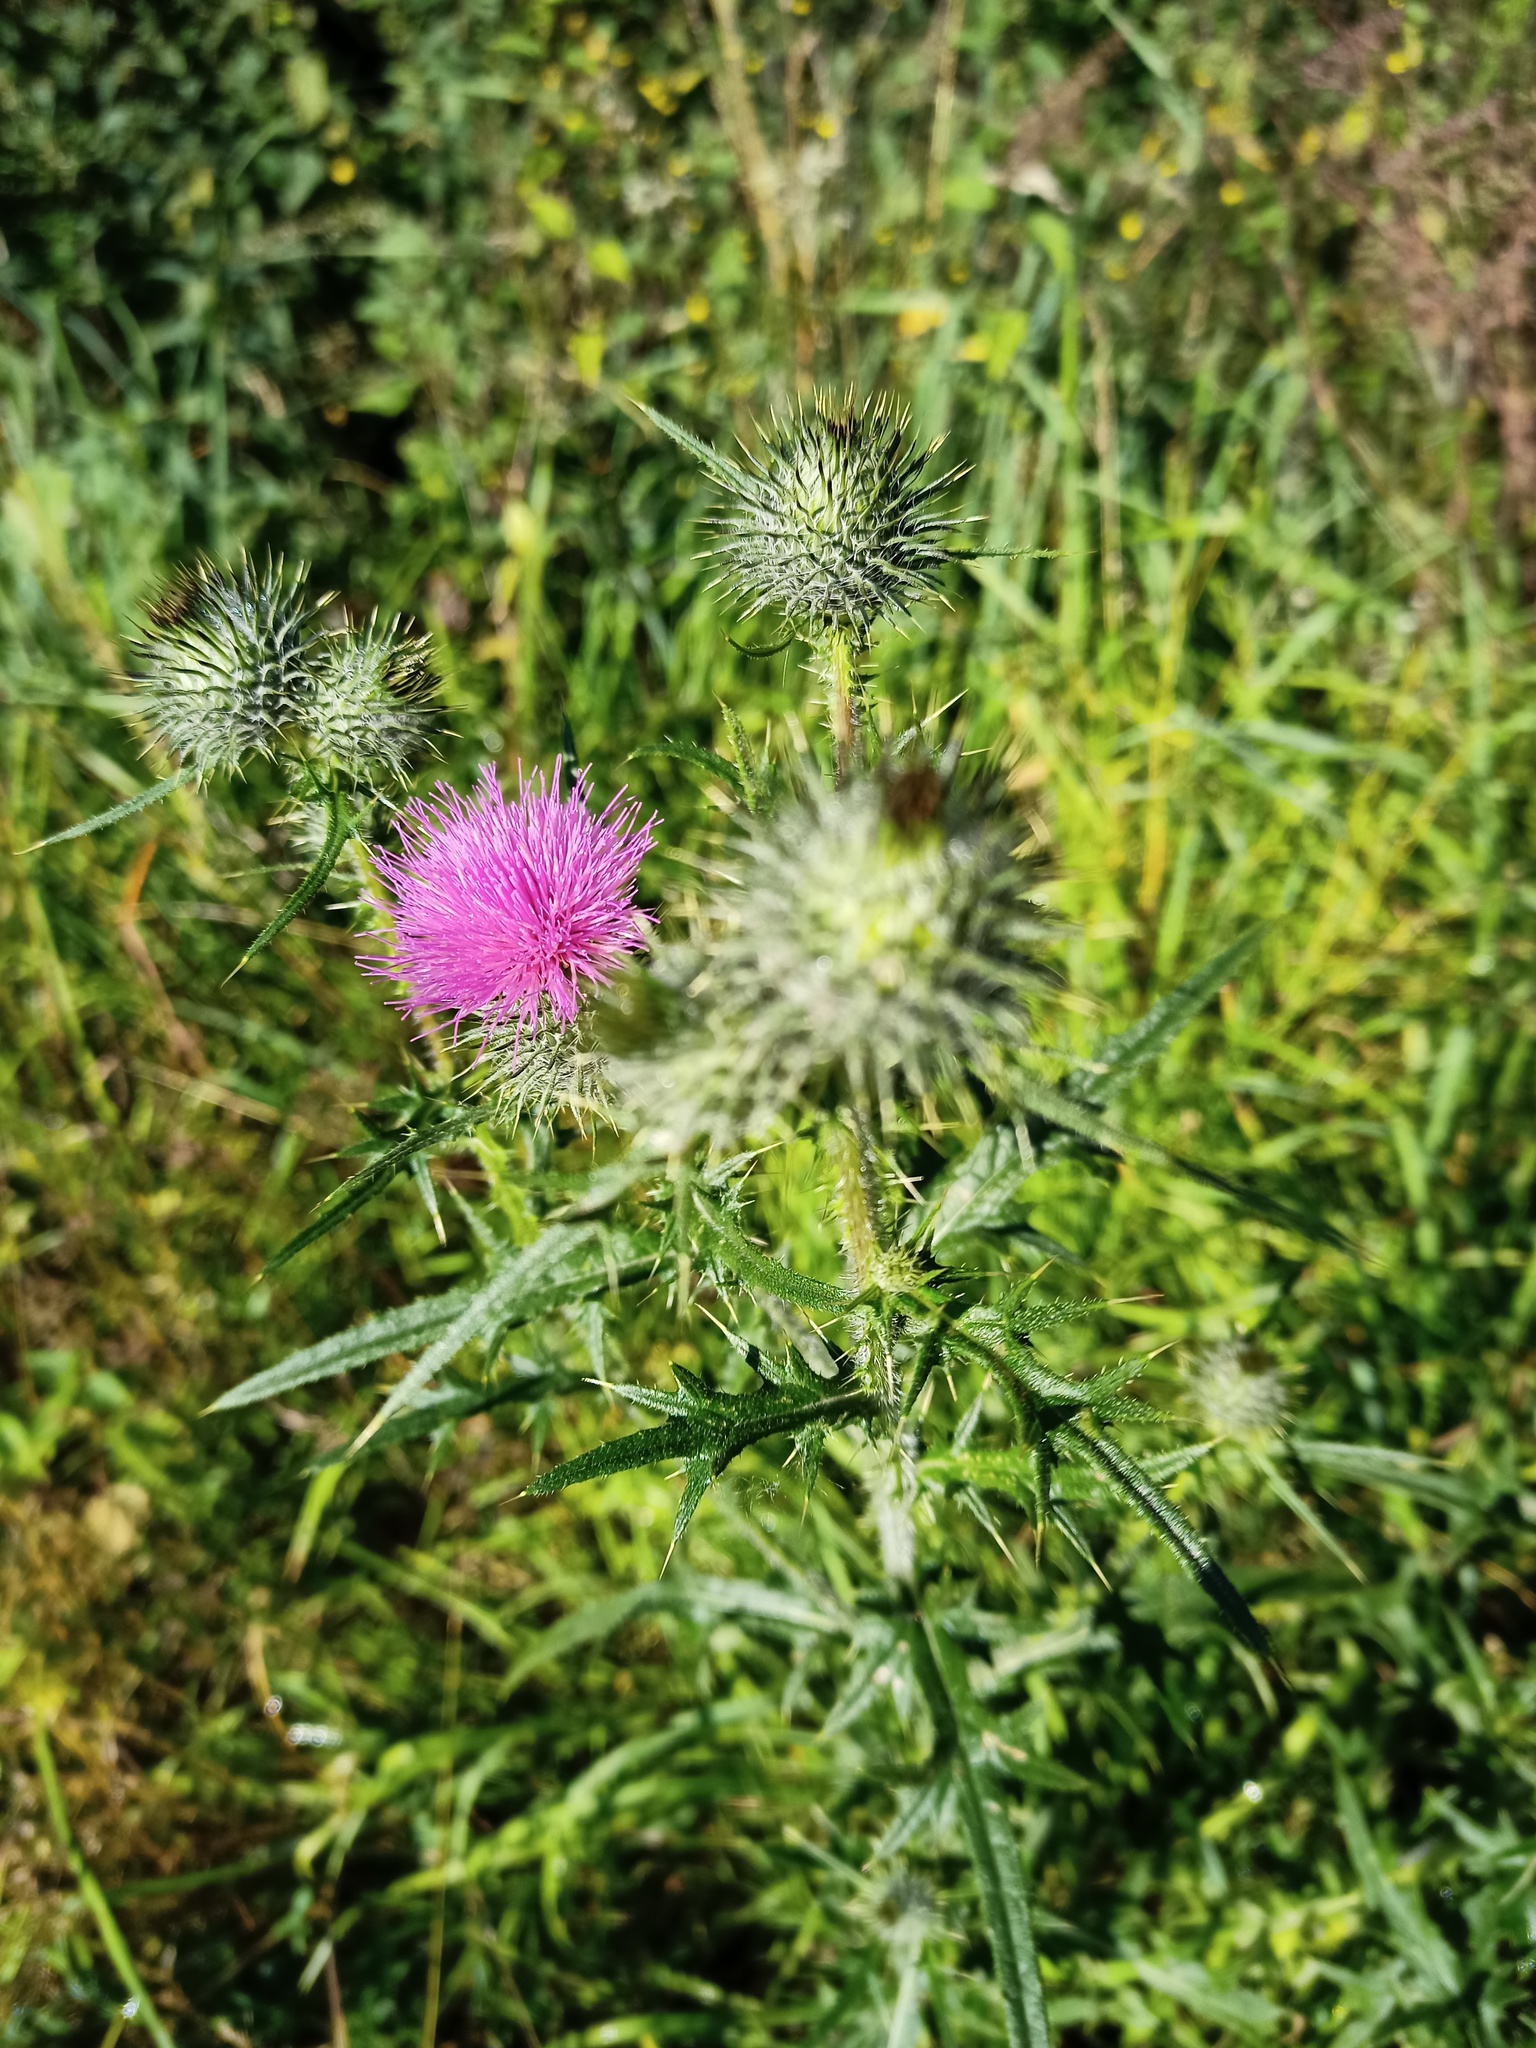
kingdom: Plantae
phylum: Tracheophyta
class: Magnoliopsida
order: Asterales
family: Asteraceae
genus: Cirsium
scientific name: Cirsium vulgare
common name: Bull thistle
